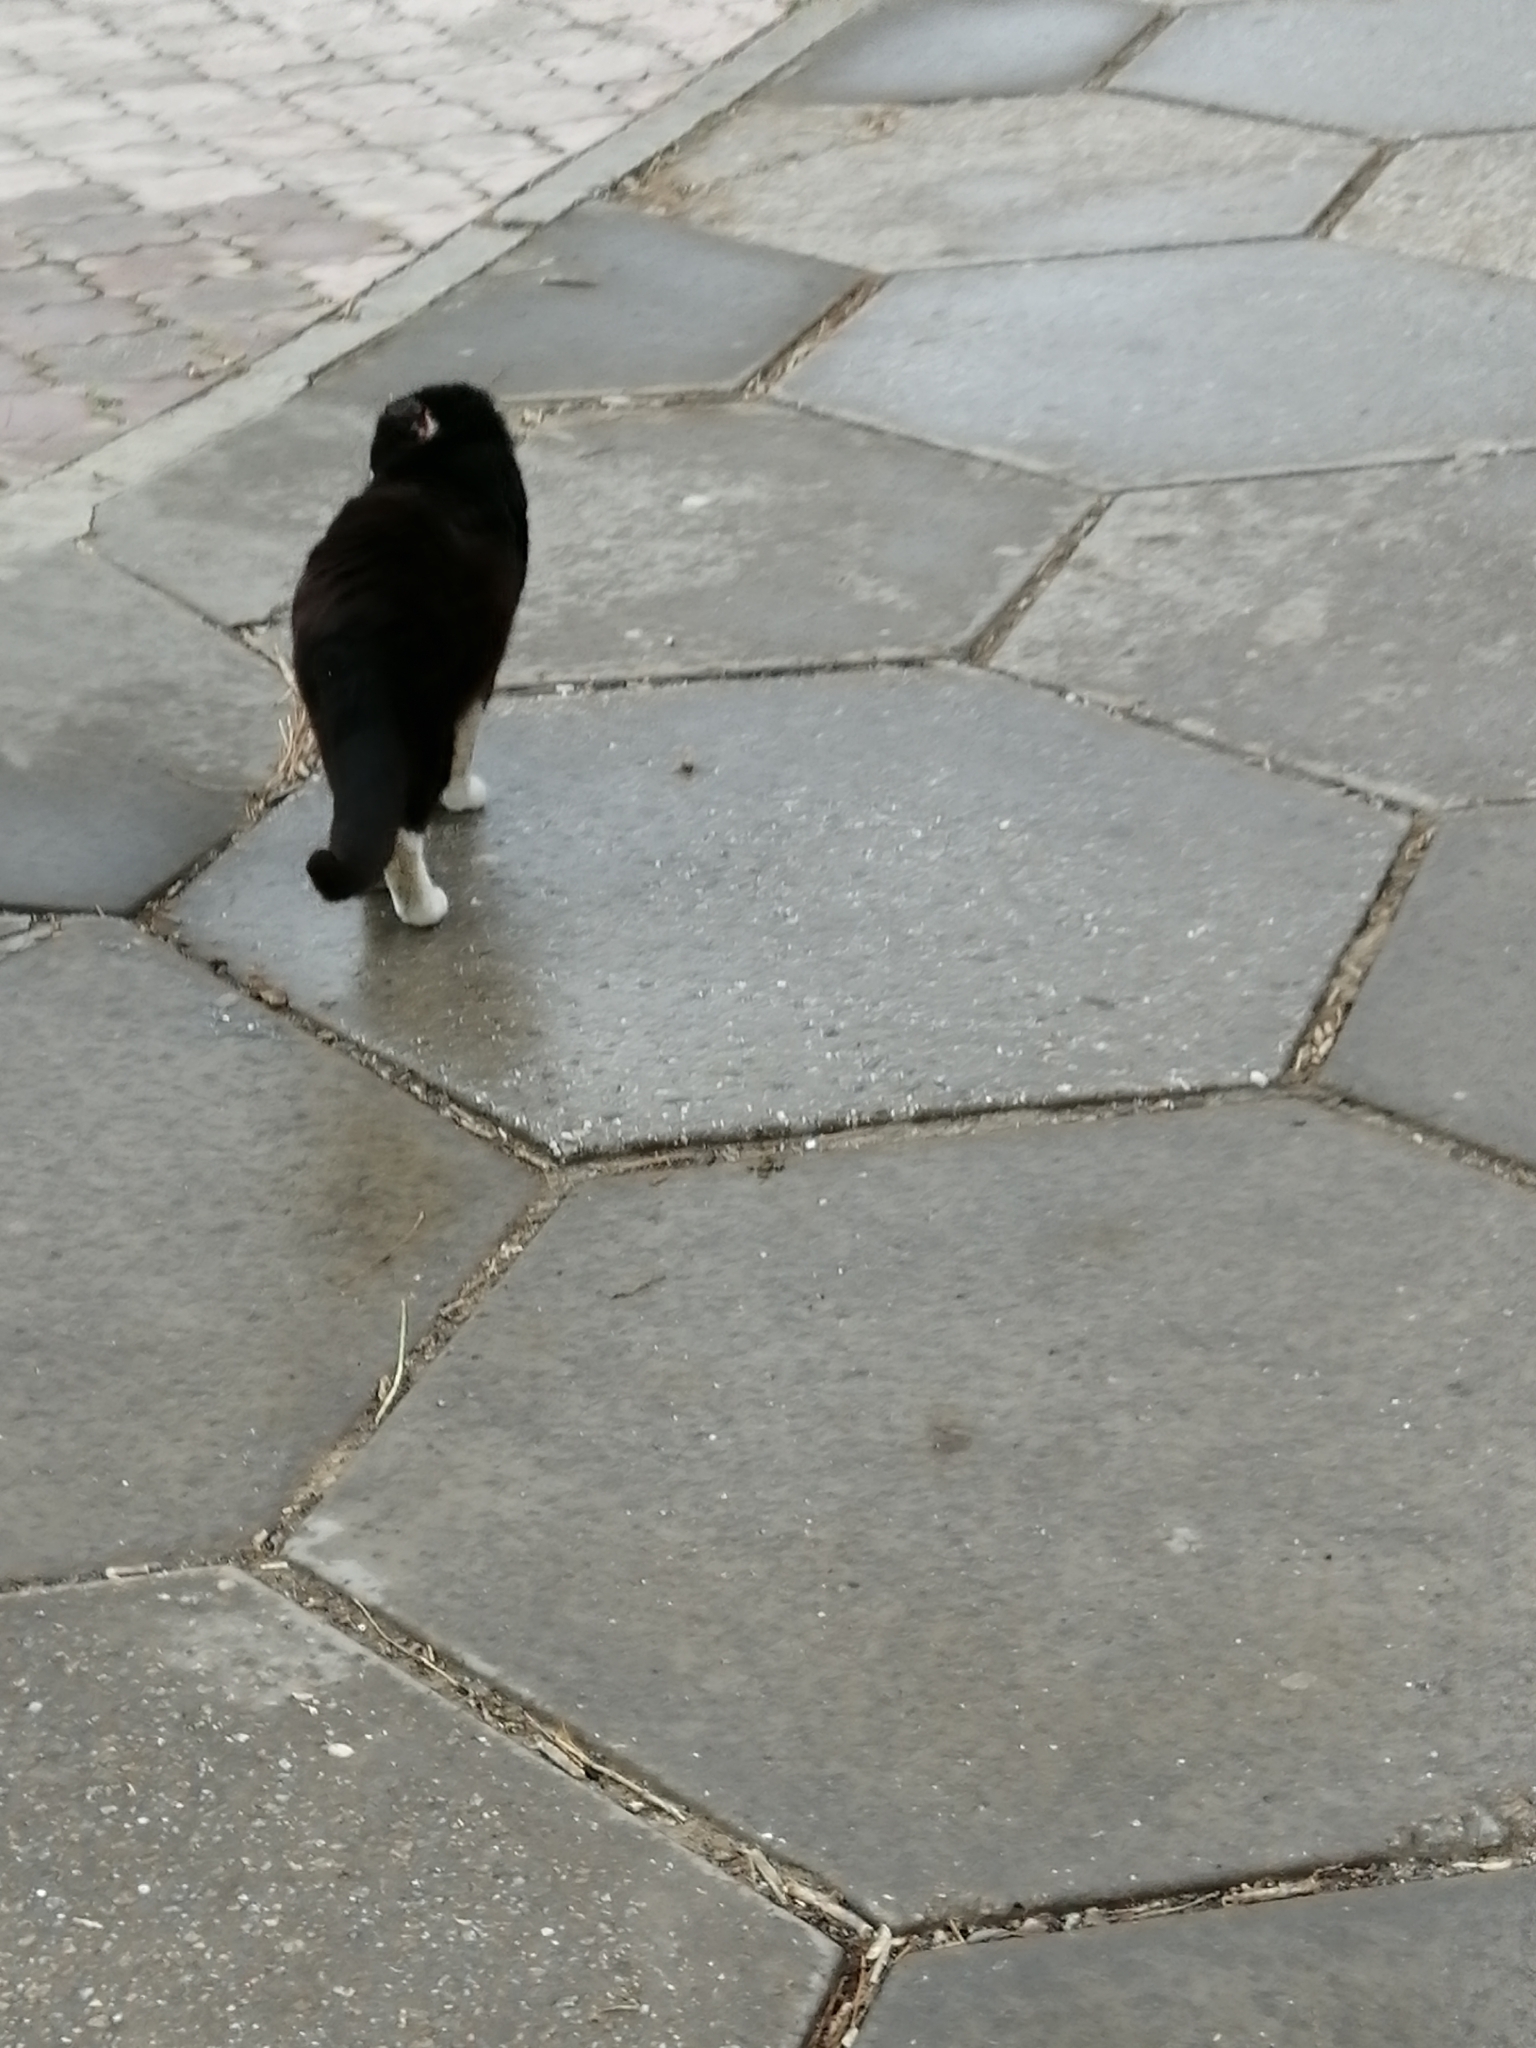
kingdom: Animalia
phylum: Chordata
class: Mammalia
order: Carnivora
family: Felidae
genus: Felis
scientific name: Felis catus
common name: Domestic cat
